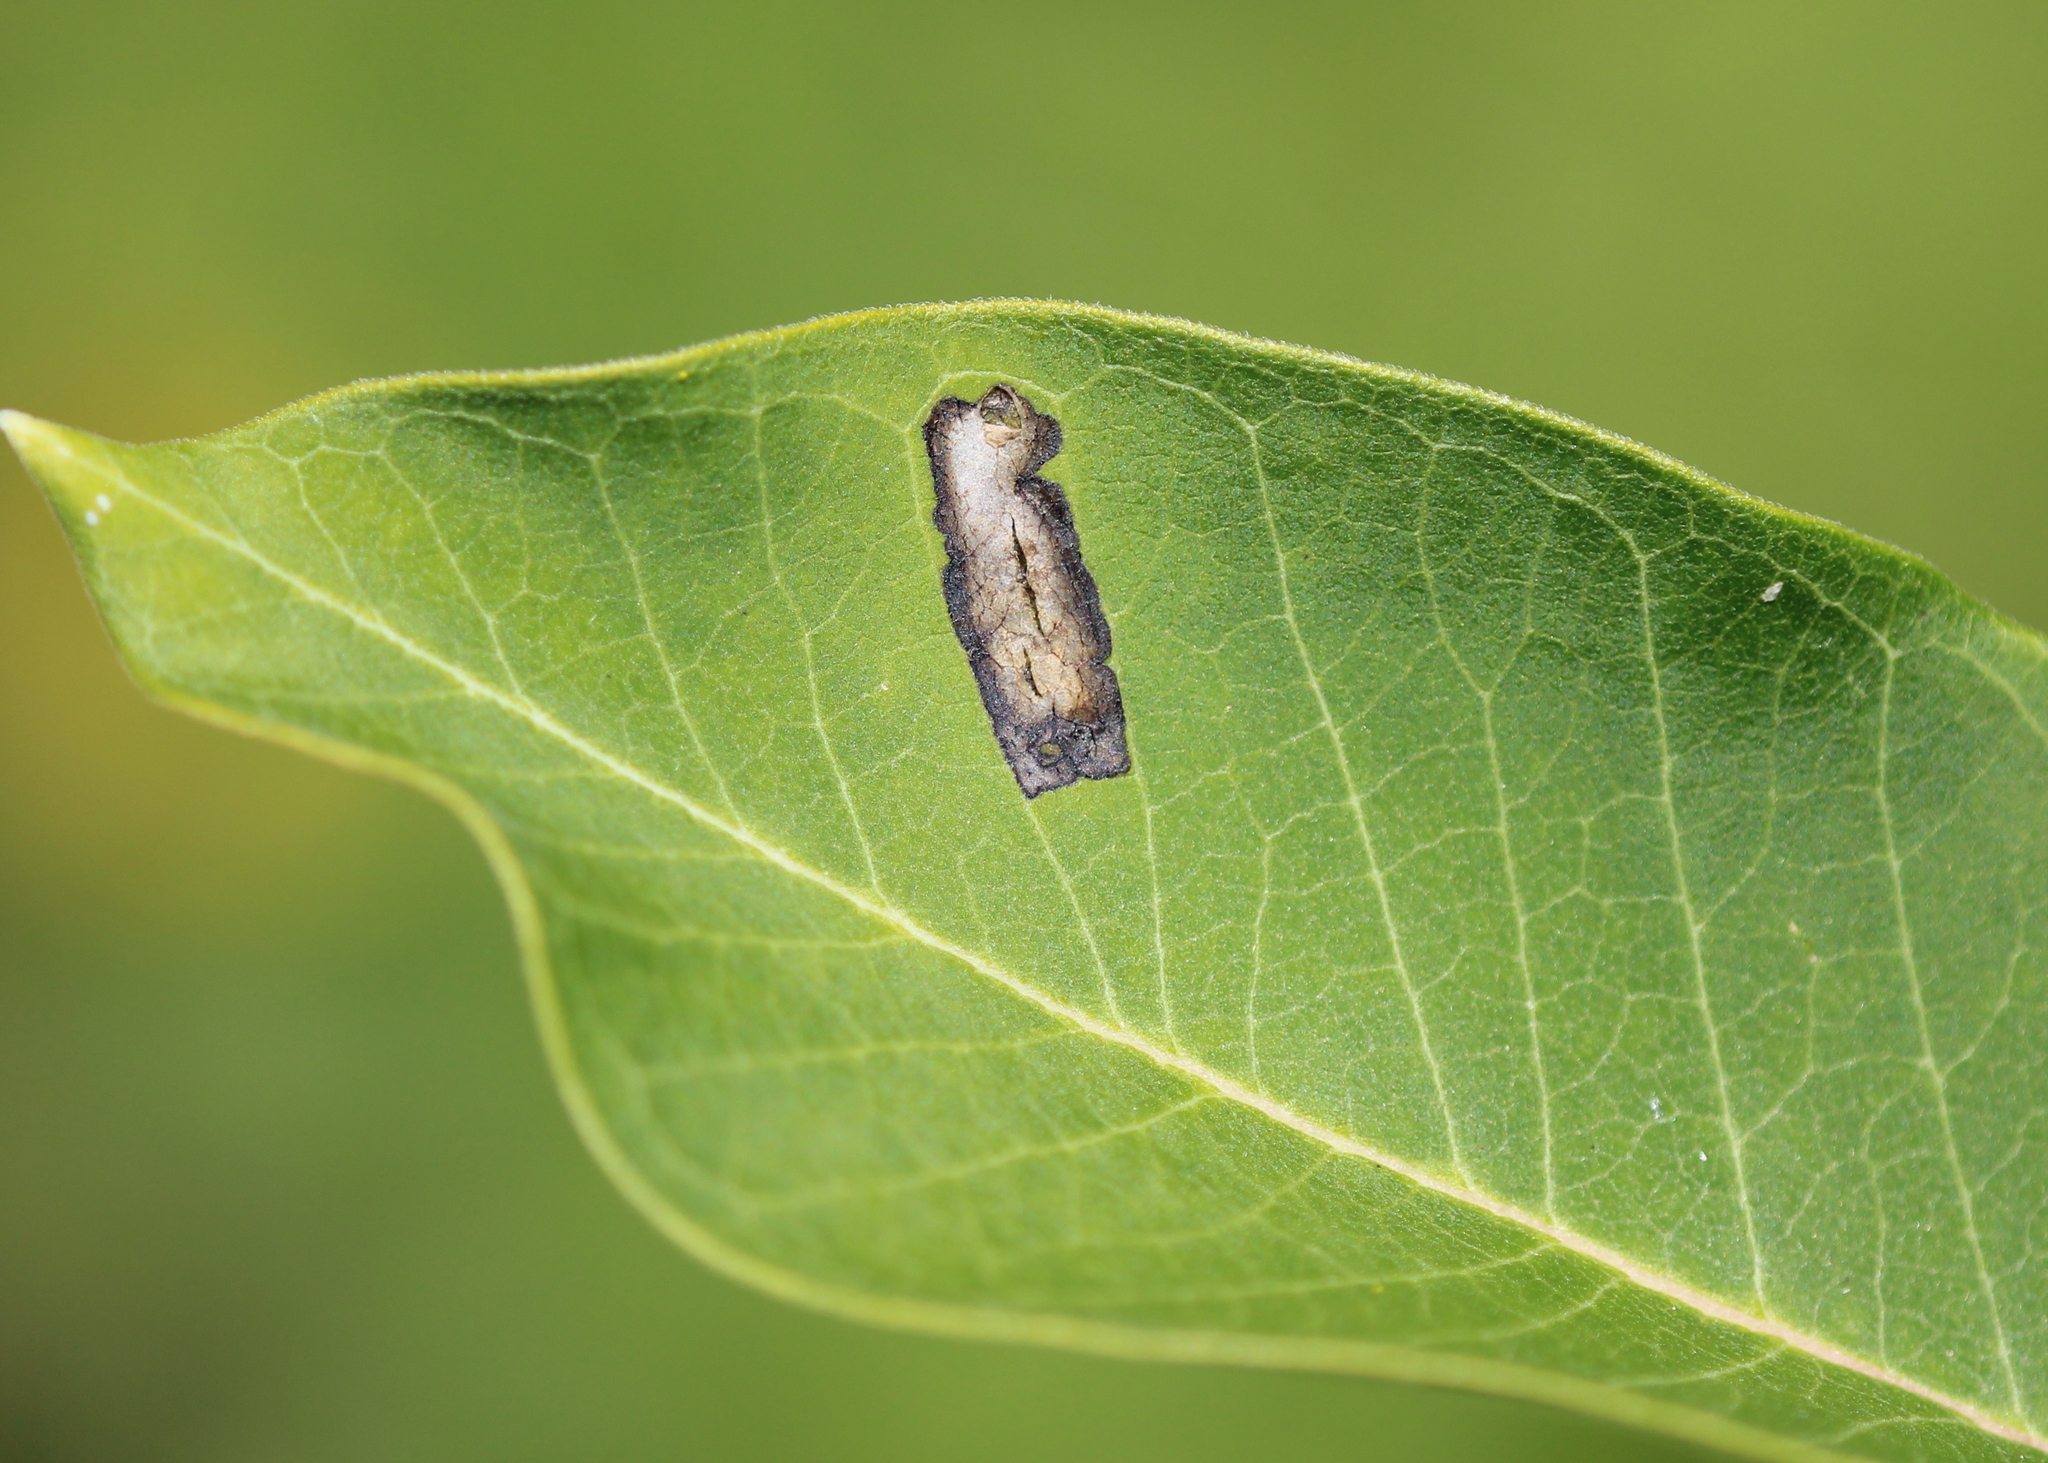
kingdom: Animalia
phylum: Arthropoda
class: Insecta
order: Diptera
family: Agromyzidae
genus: Liriomyza
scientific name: Liriomyza asclepiadis
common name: Milkweed leaf-miner fly
